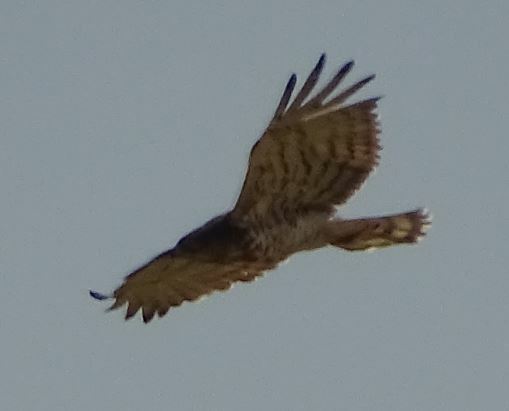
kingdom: Animalia
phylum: Chordata
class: Aves
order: Accipitriformes
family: Accipitridae
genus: Circaetus
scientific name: Circaetus gallicus
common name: Short-toed snake eagle
